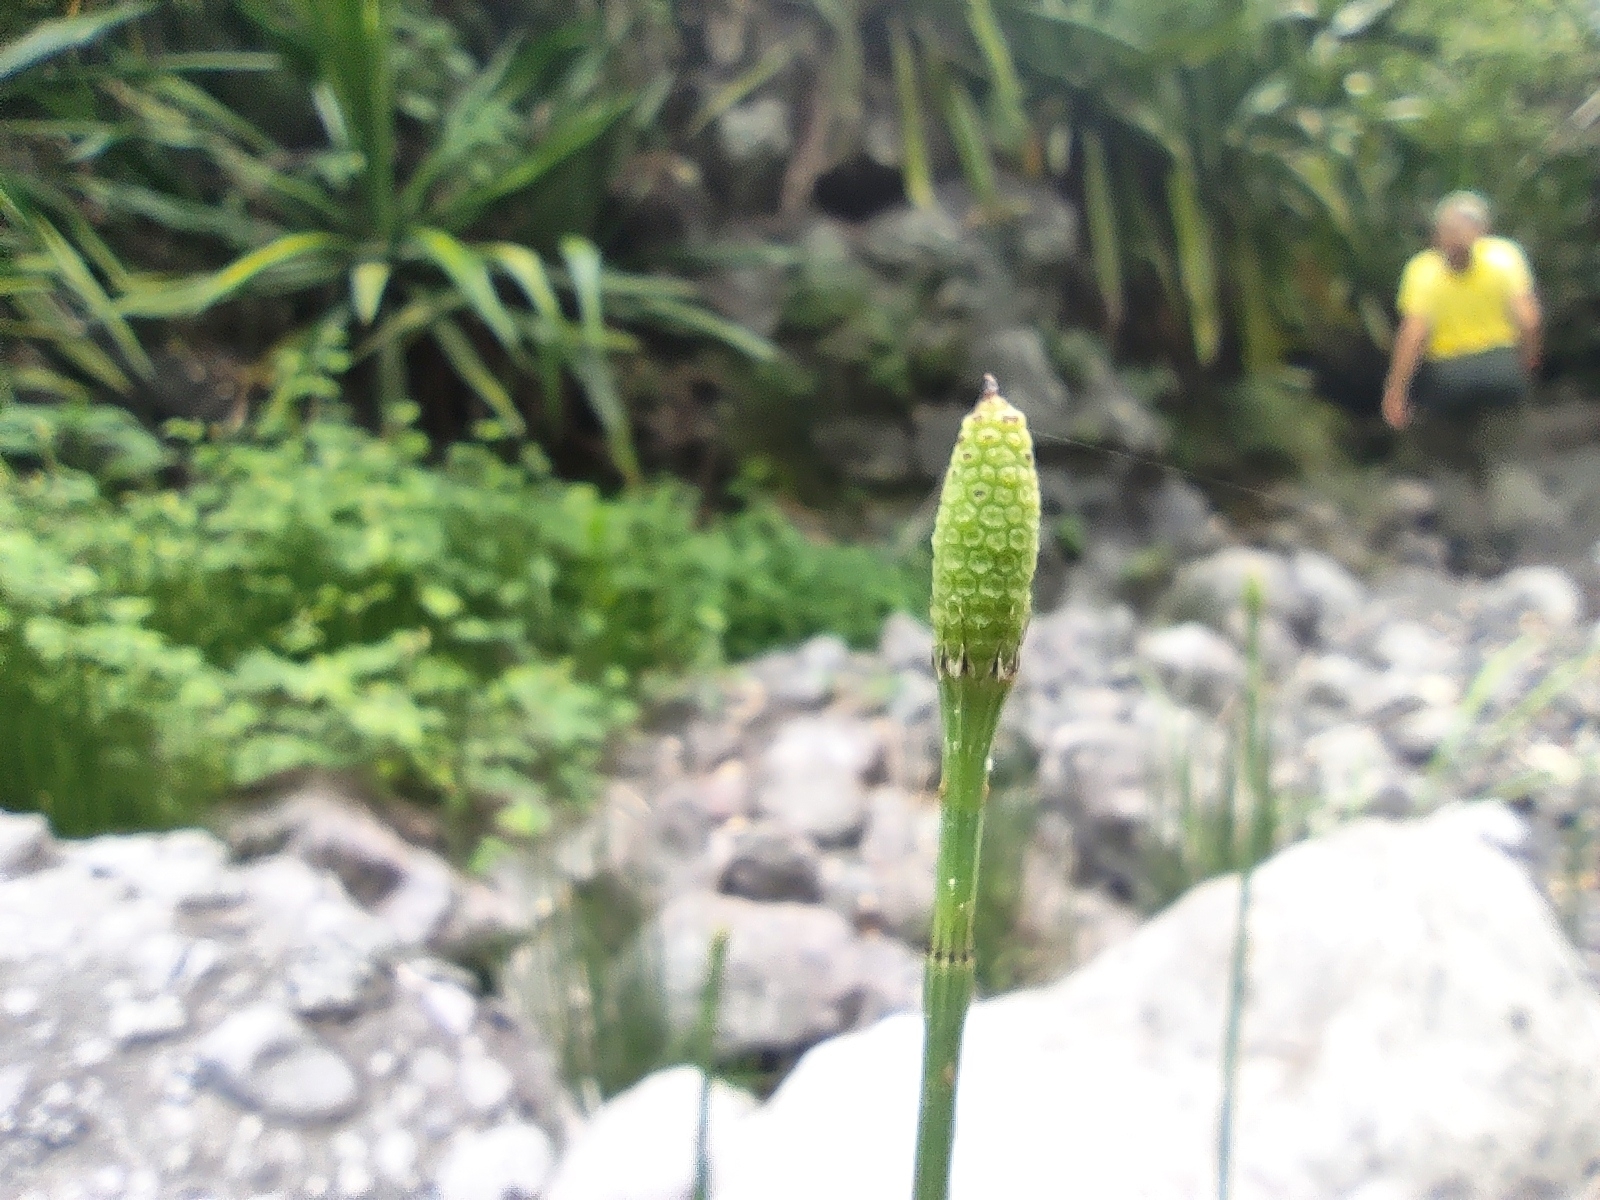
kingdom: Plantae
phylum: Tracheophyta
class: Polypodiopsida
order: Equisetales
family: Equisetaceae
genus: Equisetum
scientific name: Equisetum ramosissimum
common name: Branched horsetail
